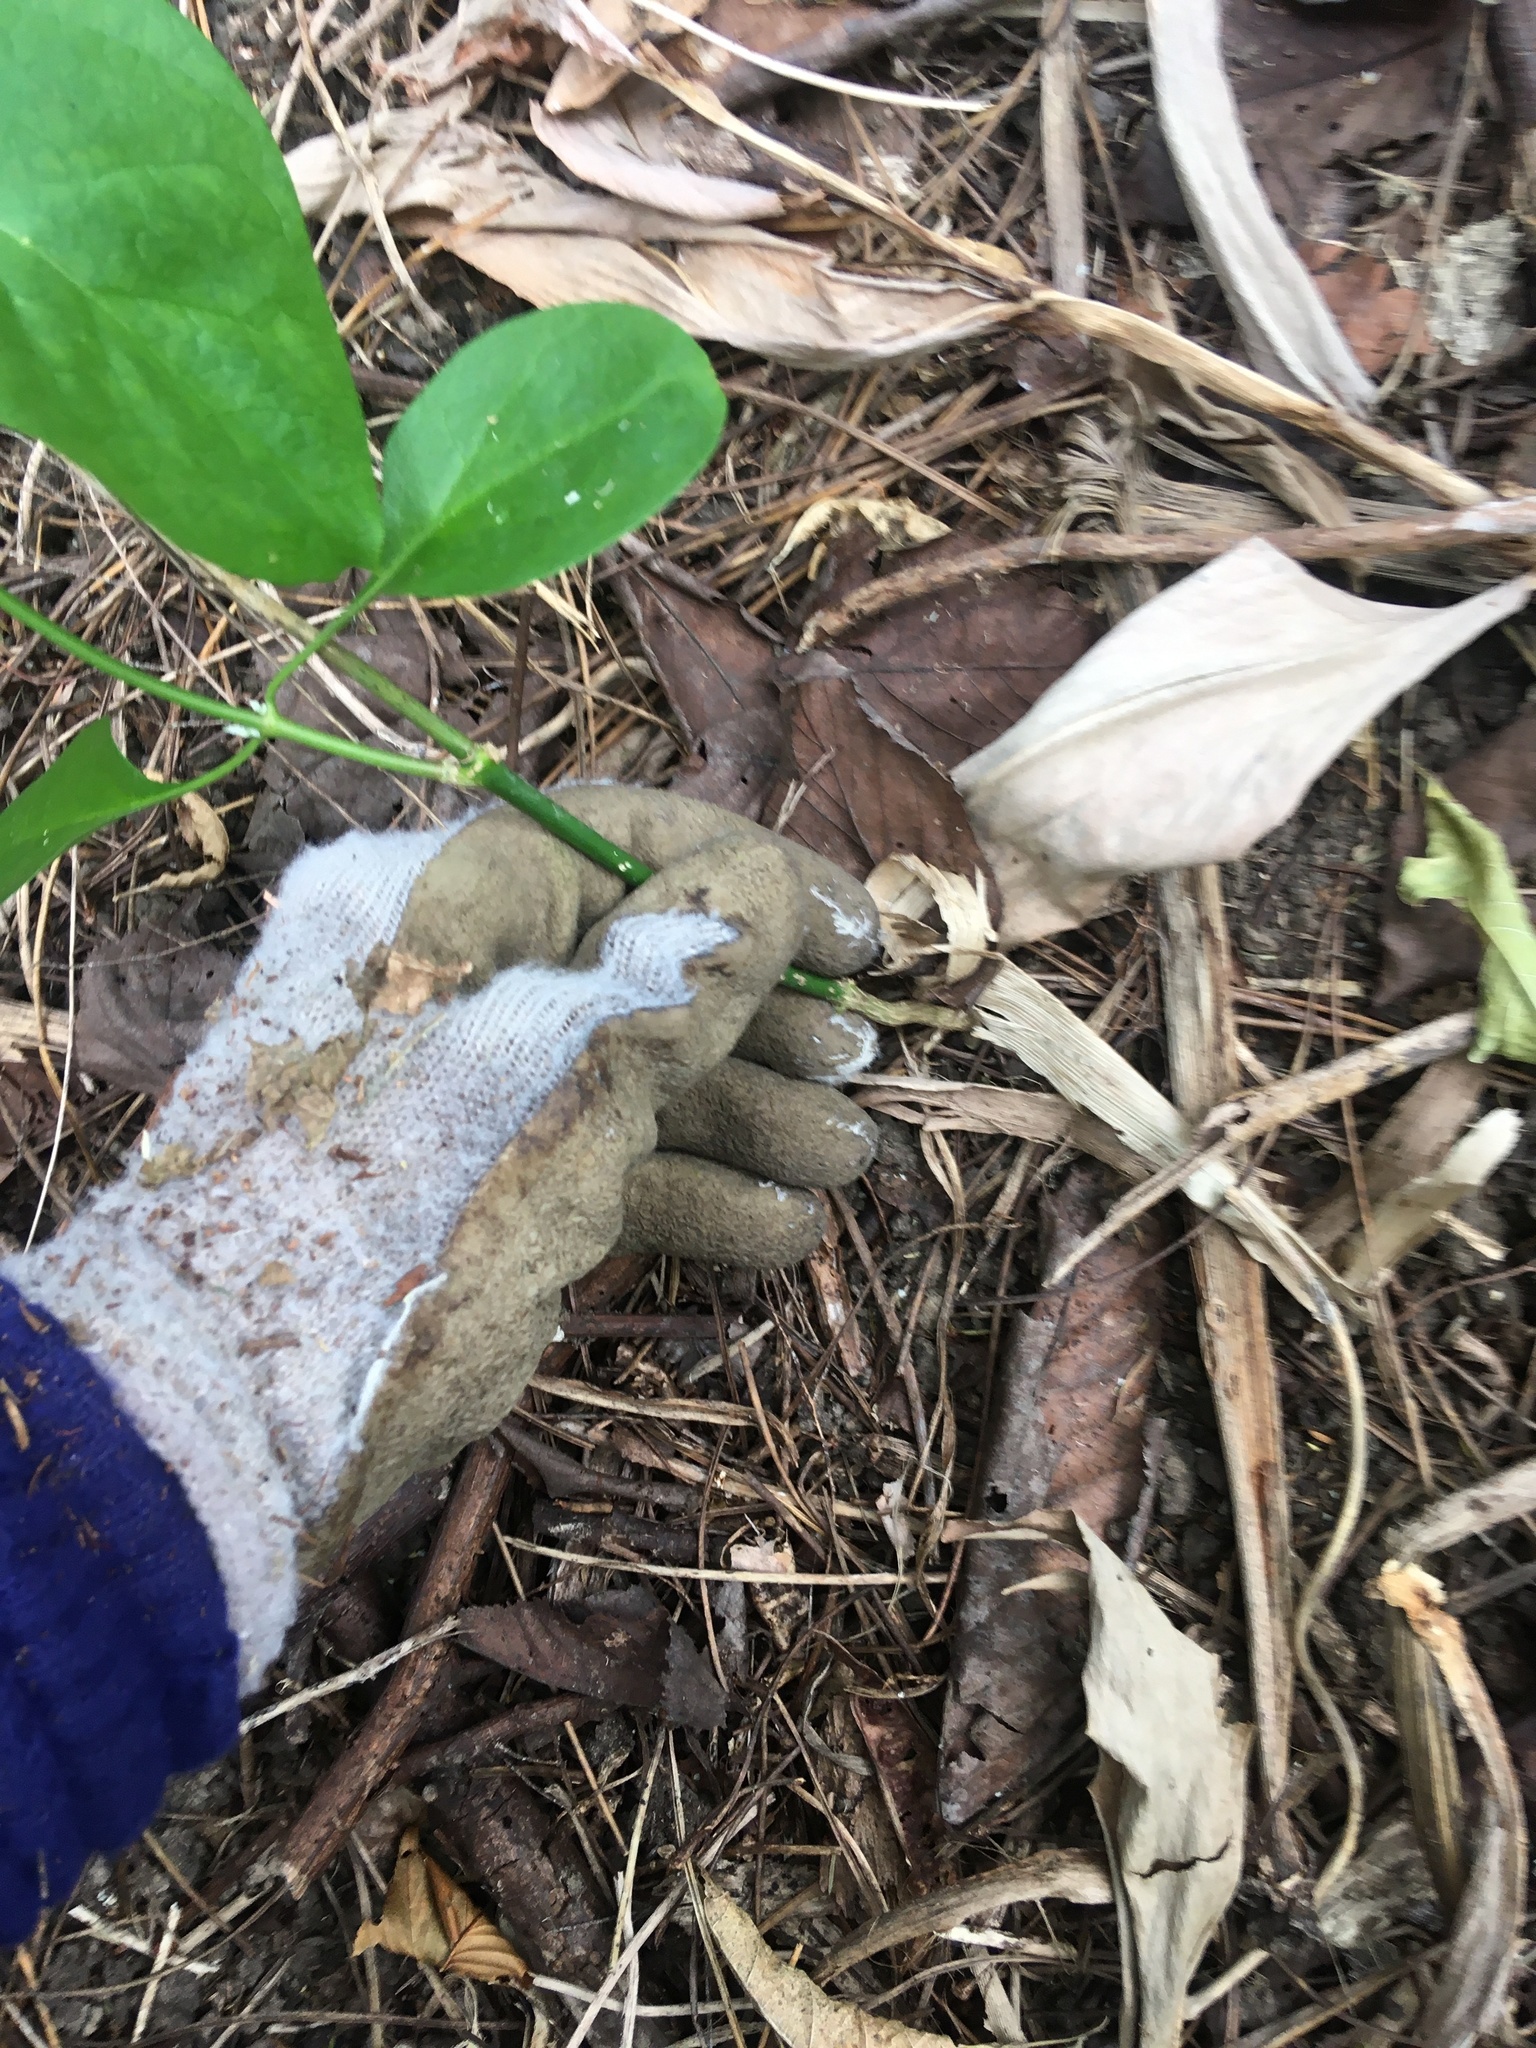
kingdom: Plantae
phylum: Tracheophyta
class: Magnoliopsida
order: Gentianales
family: Apocynaceae
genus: Araujia
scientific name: Araujia sericifera
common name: White bladderflower
